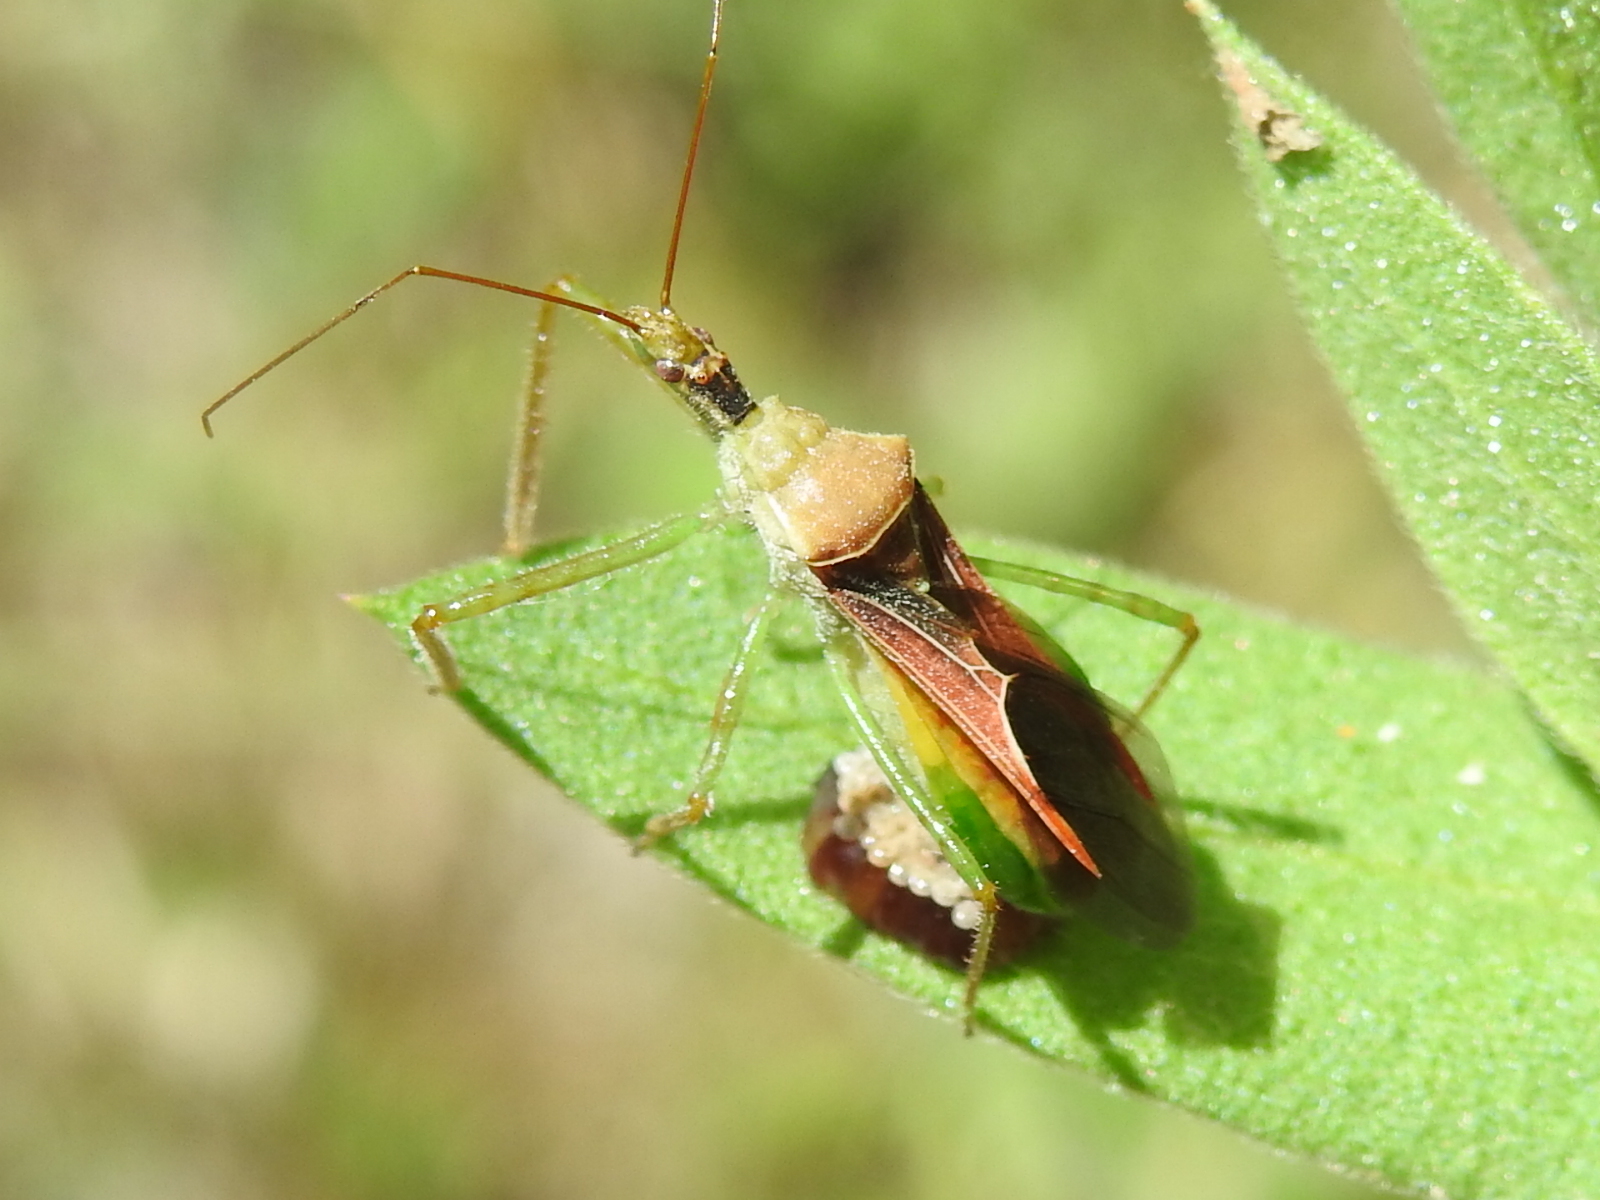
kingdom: Animalia
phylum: Arthropoda
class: Insecta
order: Hemiptera
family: Reduviidae
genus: Zelus
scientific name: Zelus renardii
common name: Assassin bug
